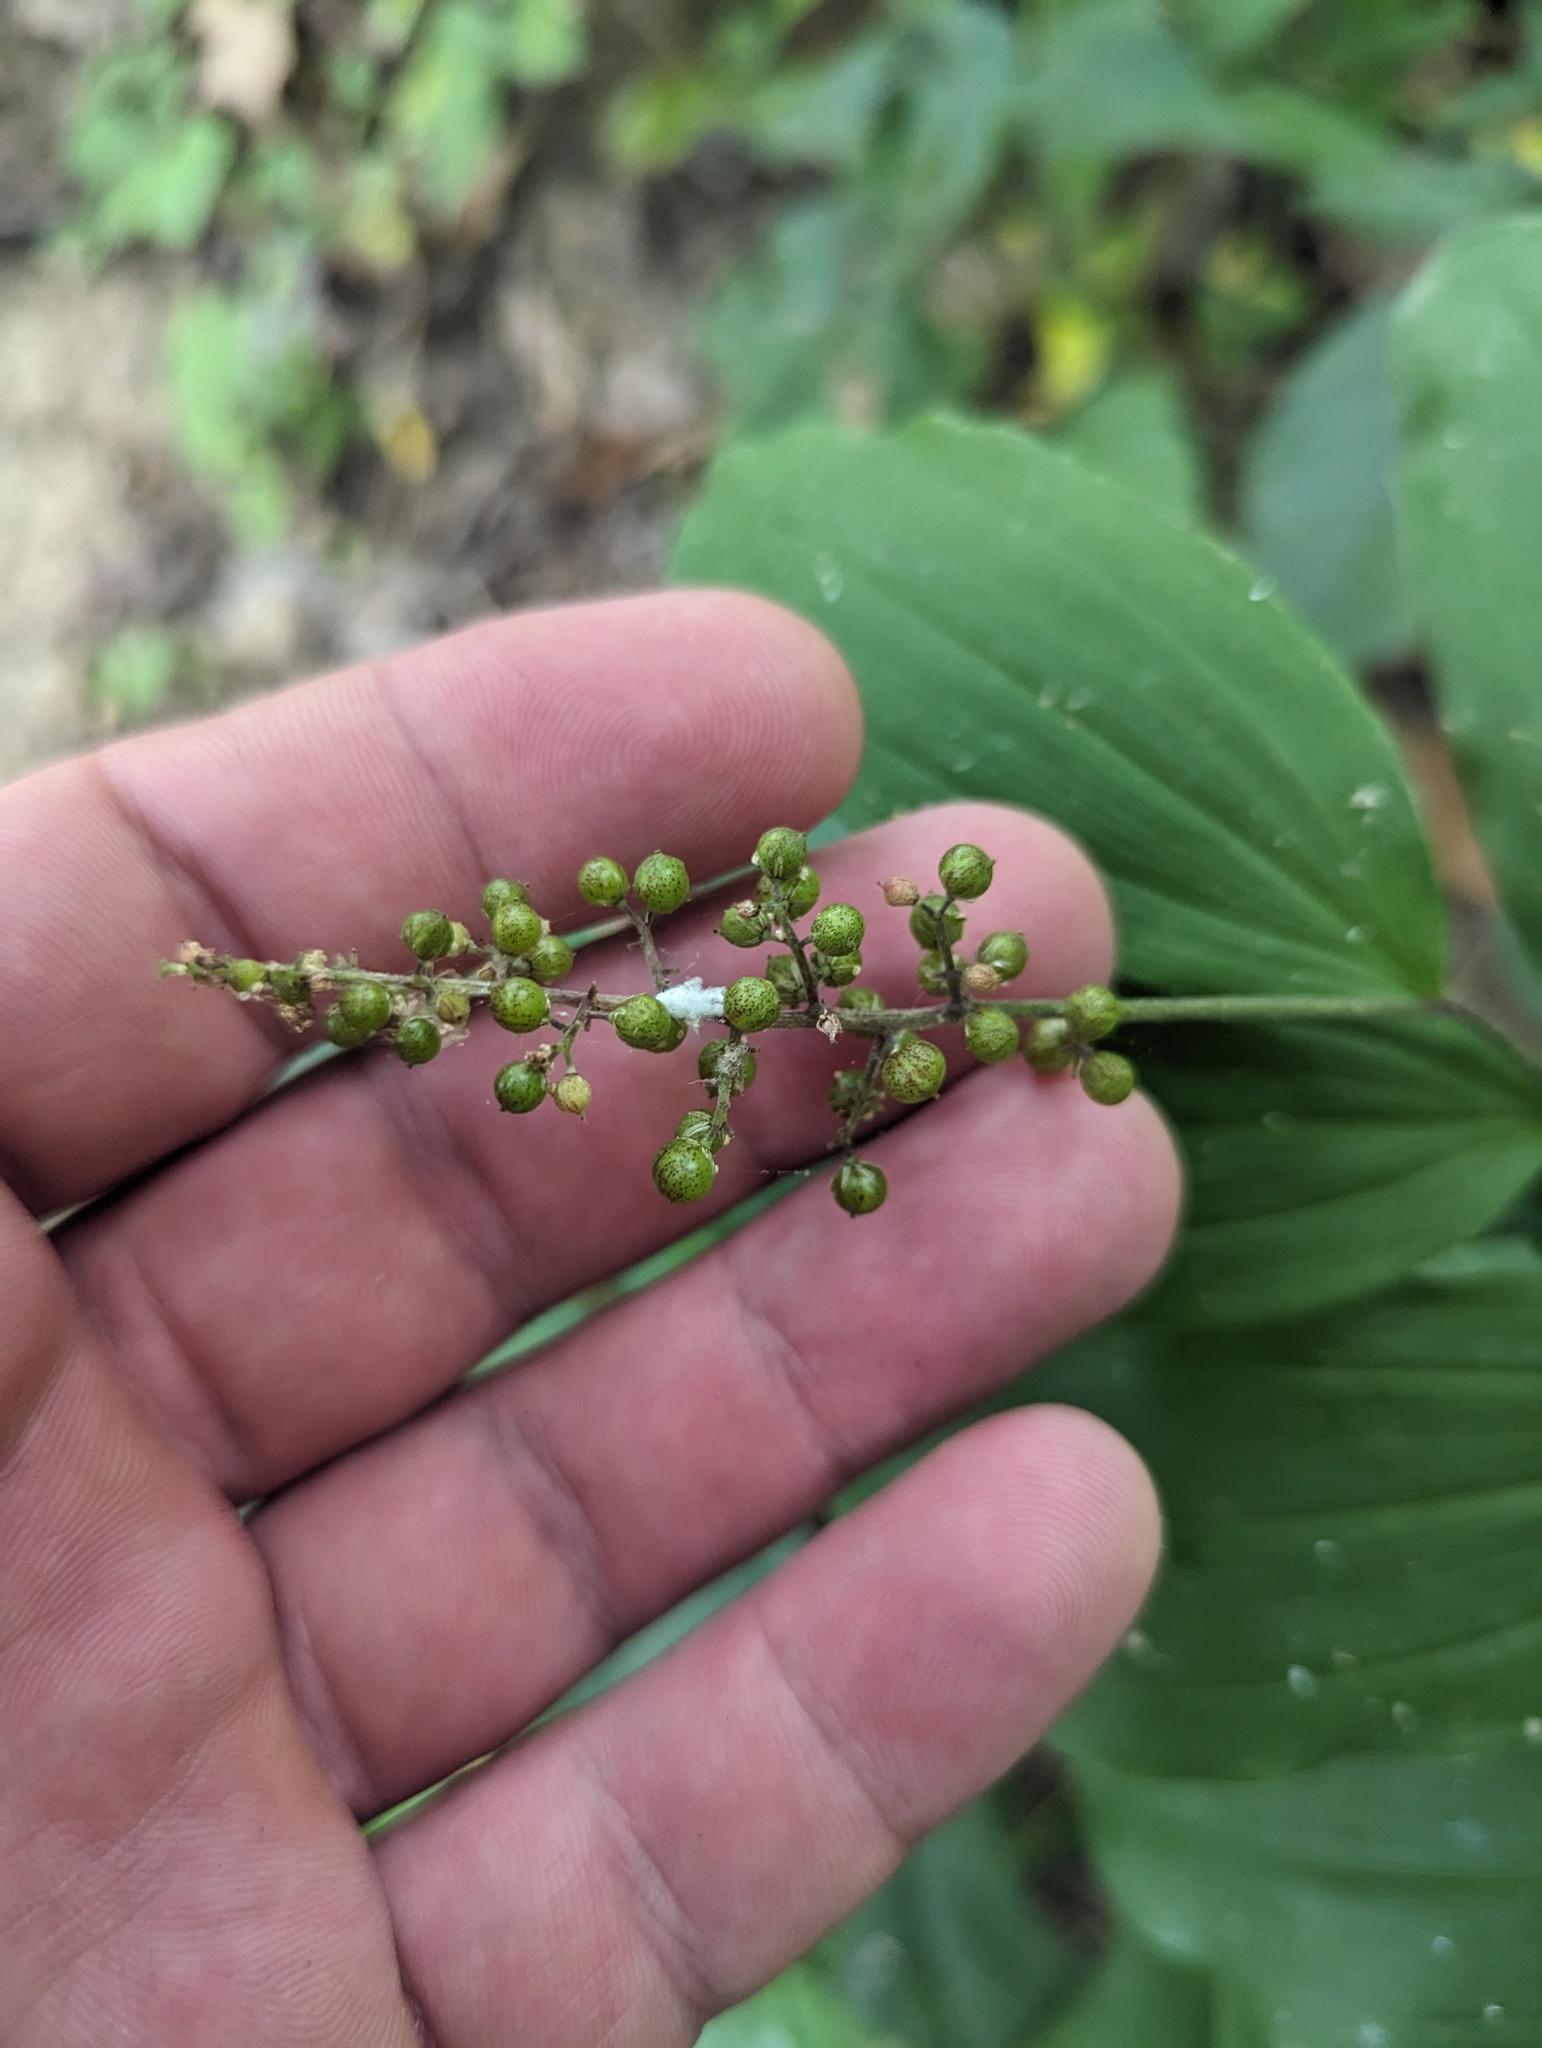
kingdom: Plantae
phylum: Tracheophyta
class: Liliopsida
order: Asparagales
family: Asparagaceae
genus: Maianthemum
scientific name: Maianthemum racemosum
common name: False spikenard
